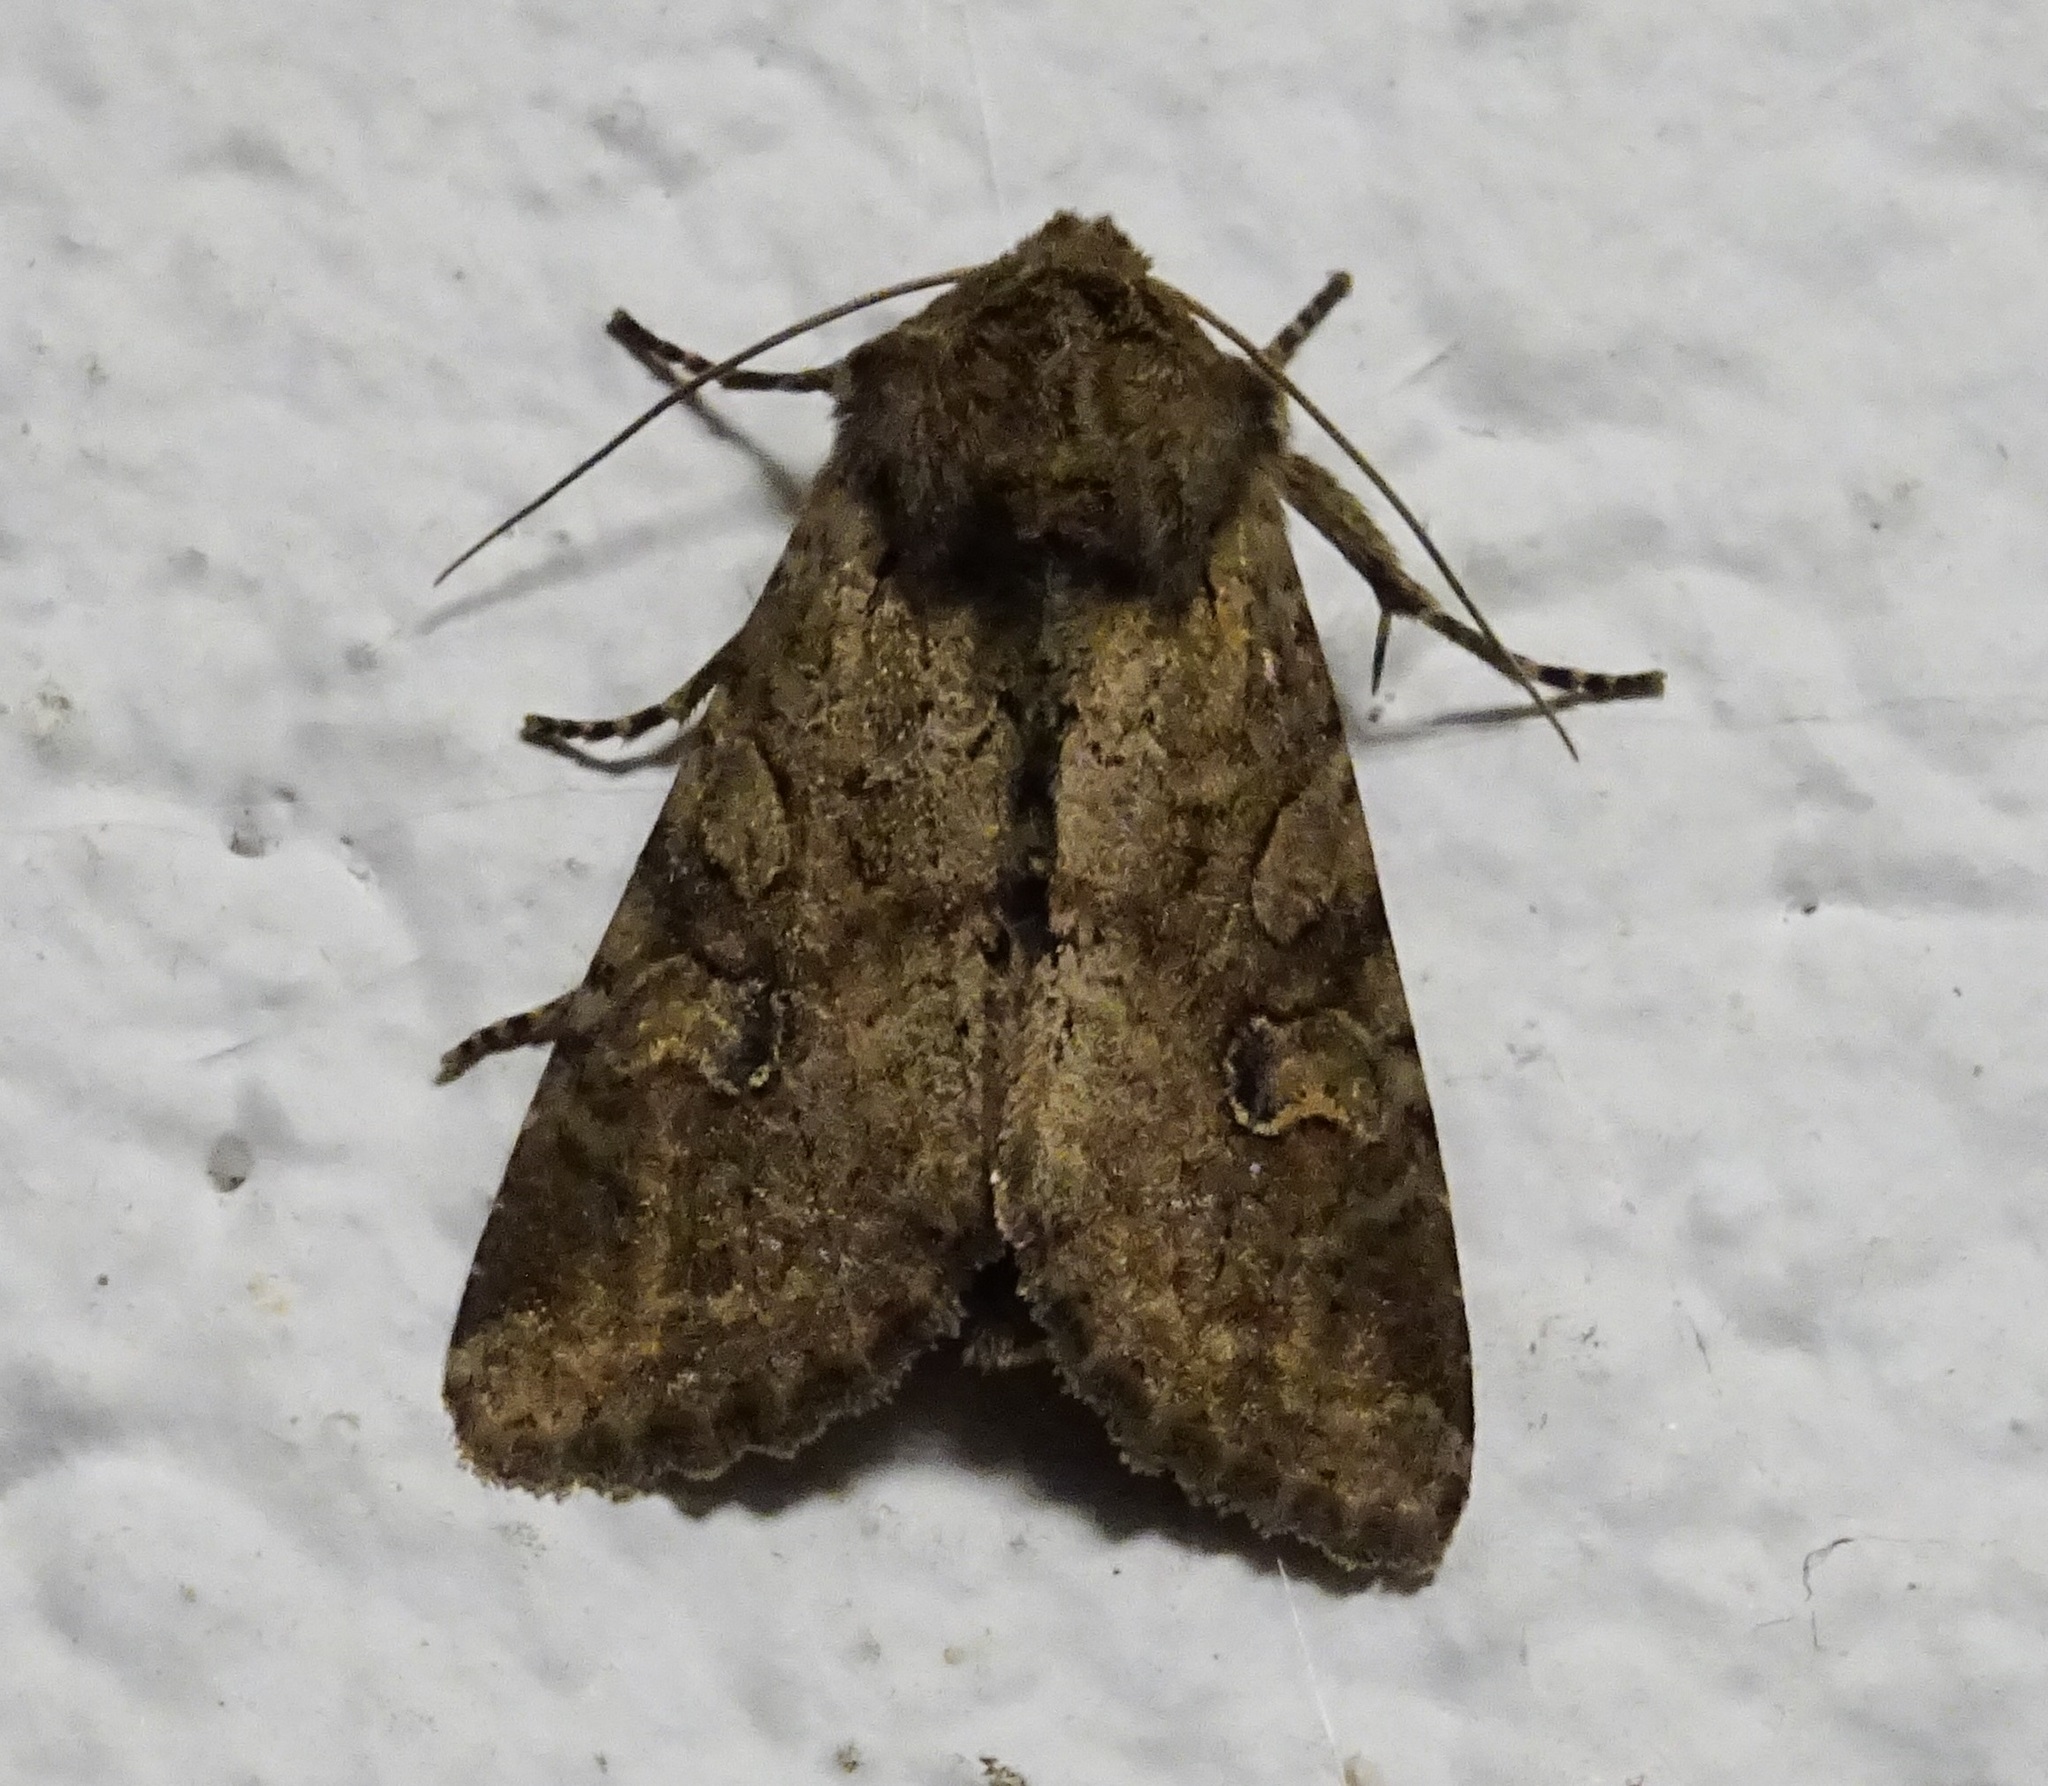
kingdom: Animalia
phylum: Arthropoda
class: Insecta
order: Lepidoptera
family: Noctuidae
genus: Apamea
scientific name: Apamea sordens
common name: Rustic shoulder-knot
